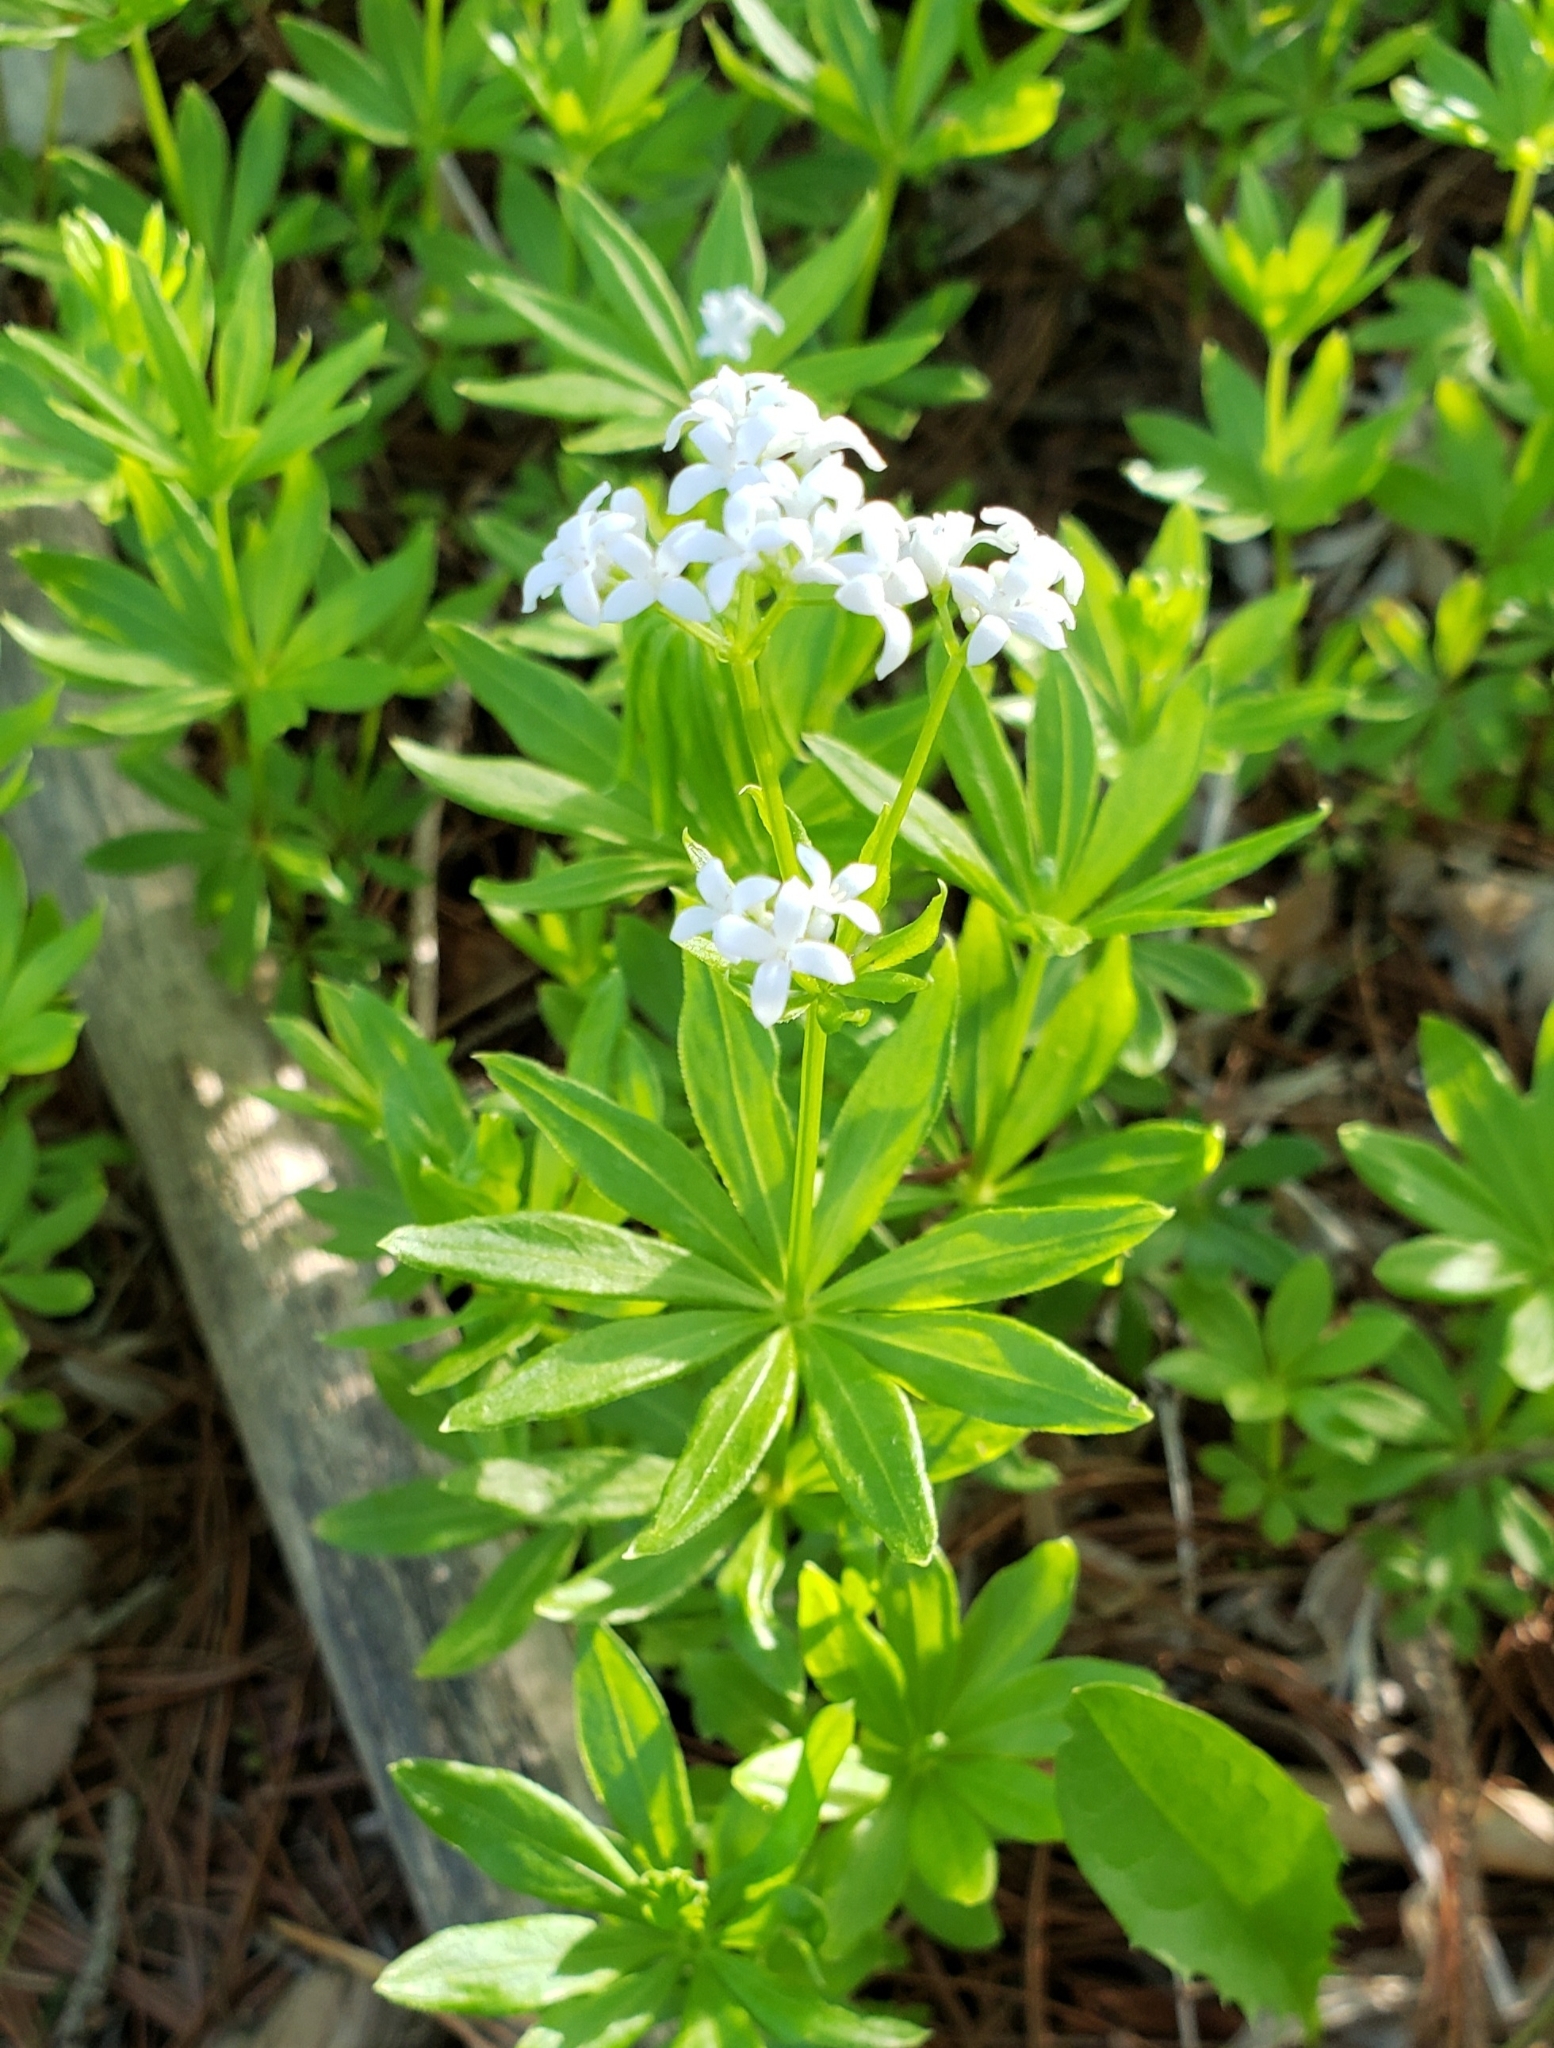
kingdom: Plantae
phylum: Tracheophyta
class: Magnoliopsida
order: Gentianales
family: Rubiaceae
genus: Galium
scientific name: Galium odoratum
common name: Sweet woodruff
